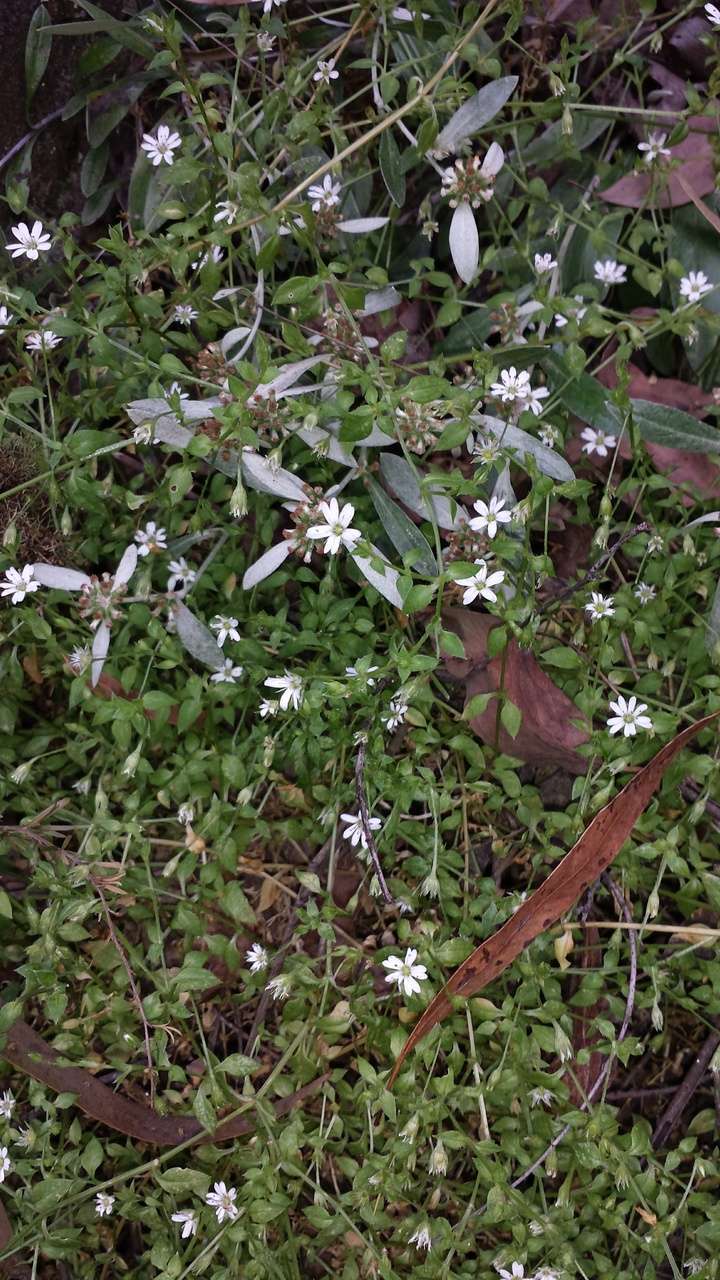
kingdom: Plantae
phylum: Tracheophyta
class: Magnoliopsida
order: Caryophyllales
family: Caryophyllaceae
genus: Stellaria
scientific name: Stellaria flaccida
